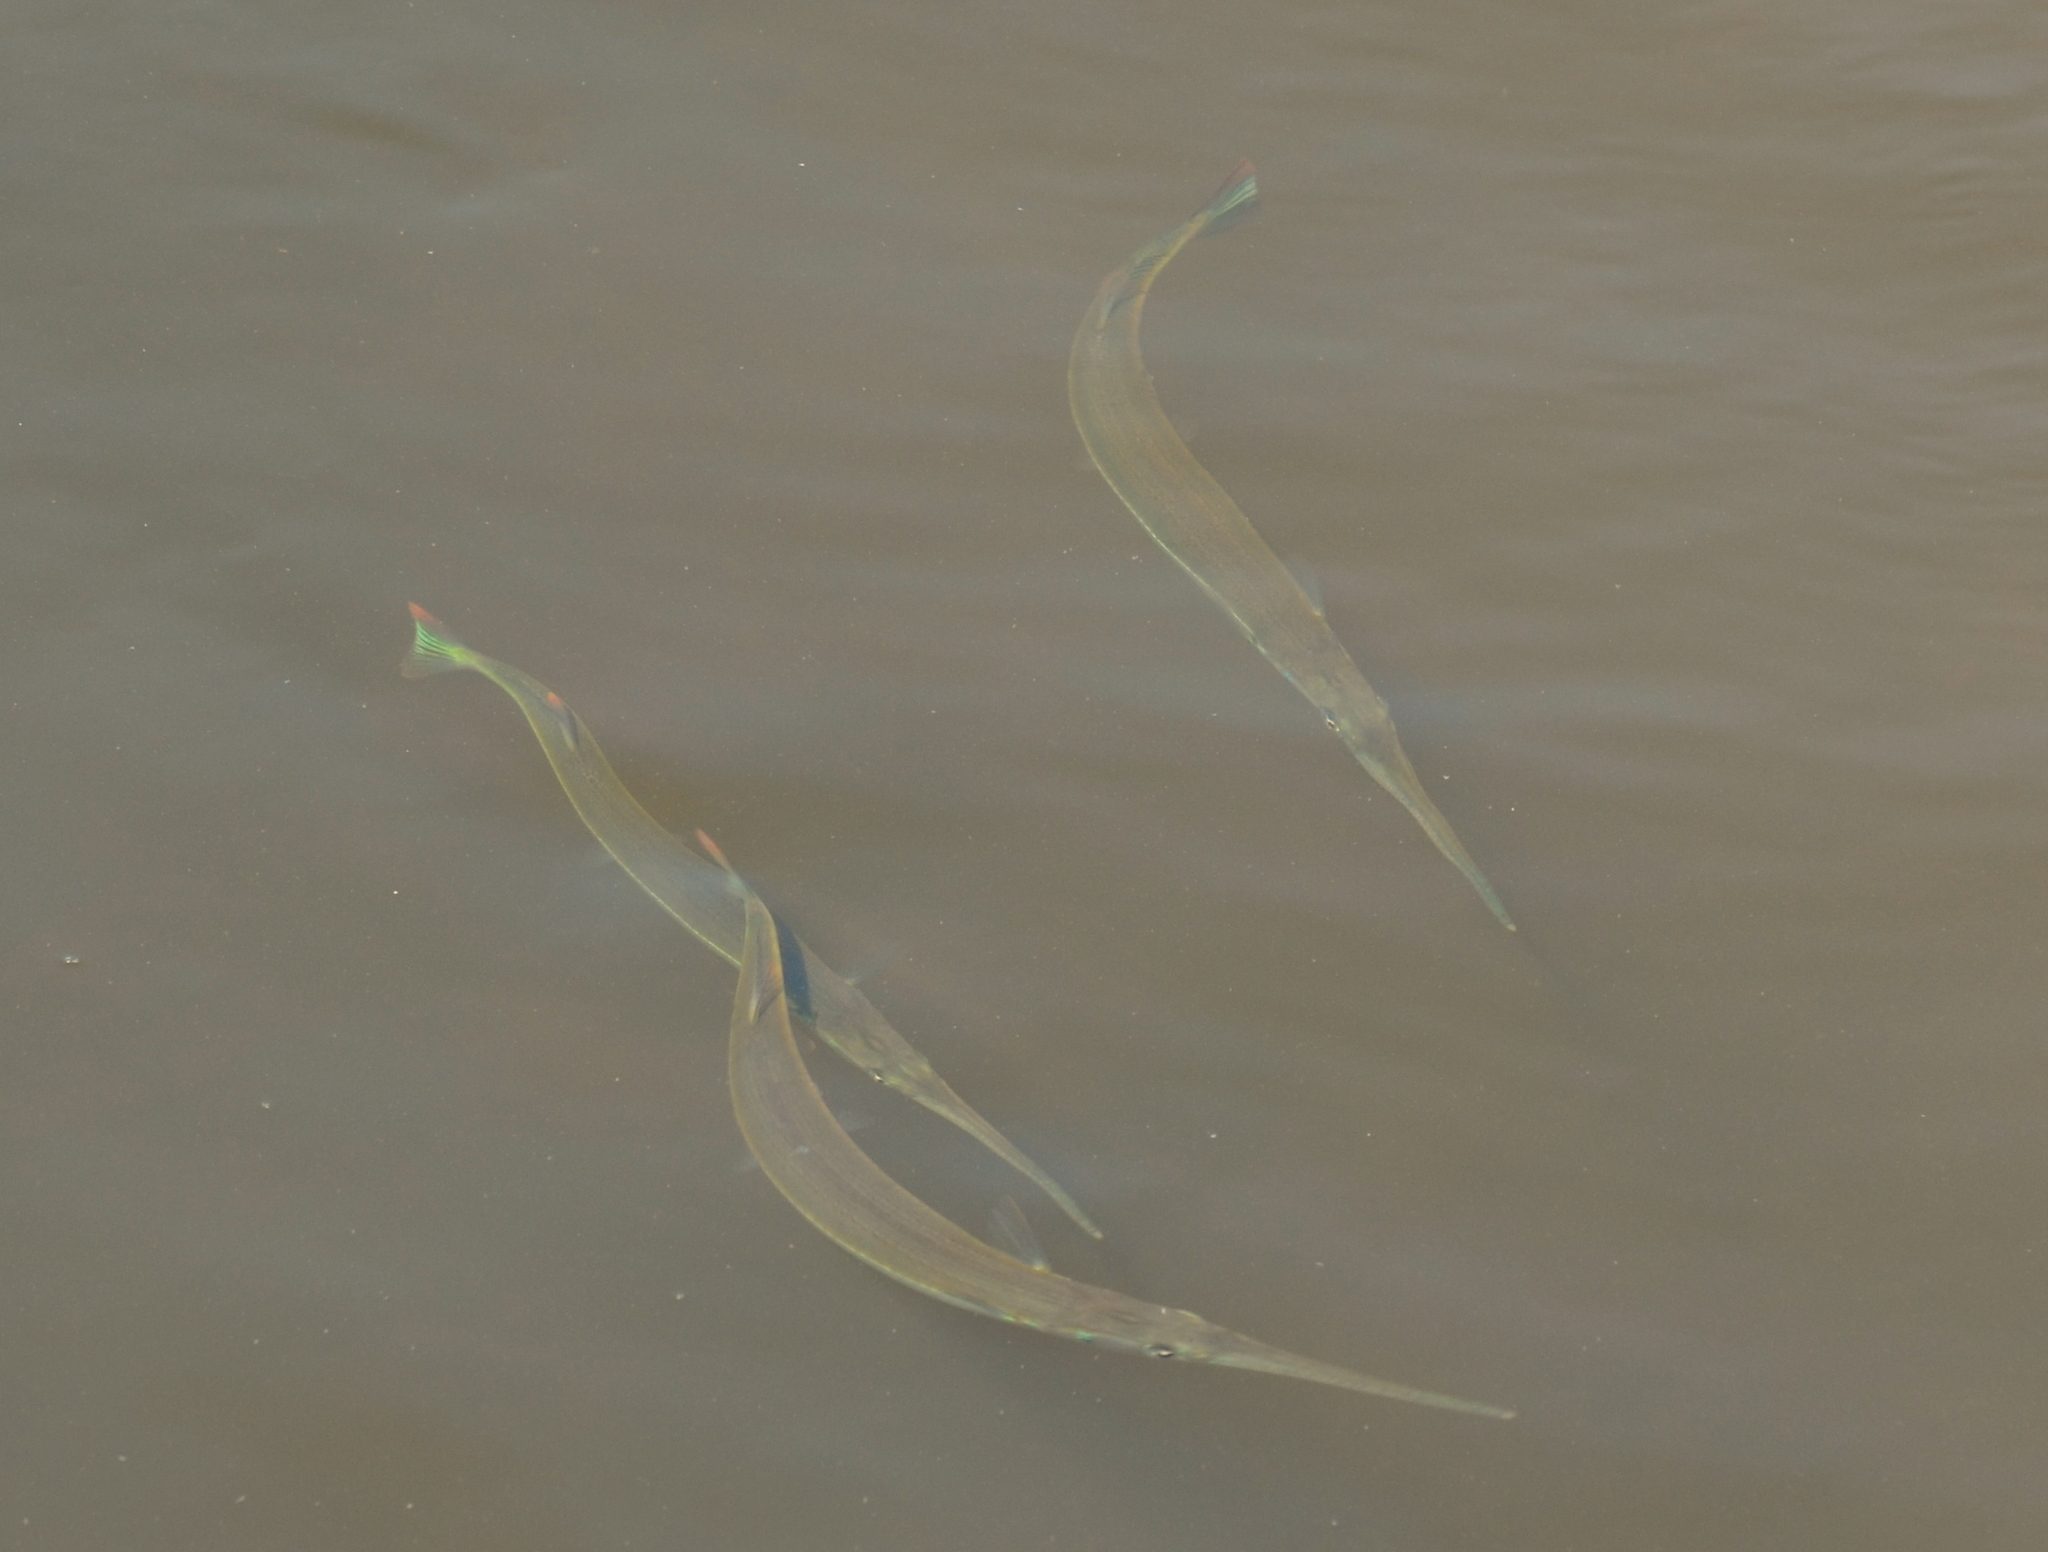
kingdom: Animalia
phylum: Chordata
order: Beloniformes
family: Belonidae
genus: Strongylura
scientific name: Strongylura notata
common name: Redfin needlefish
